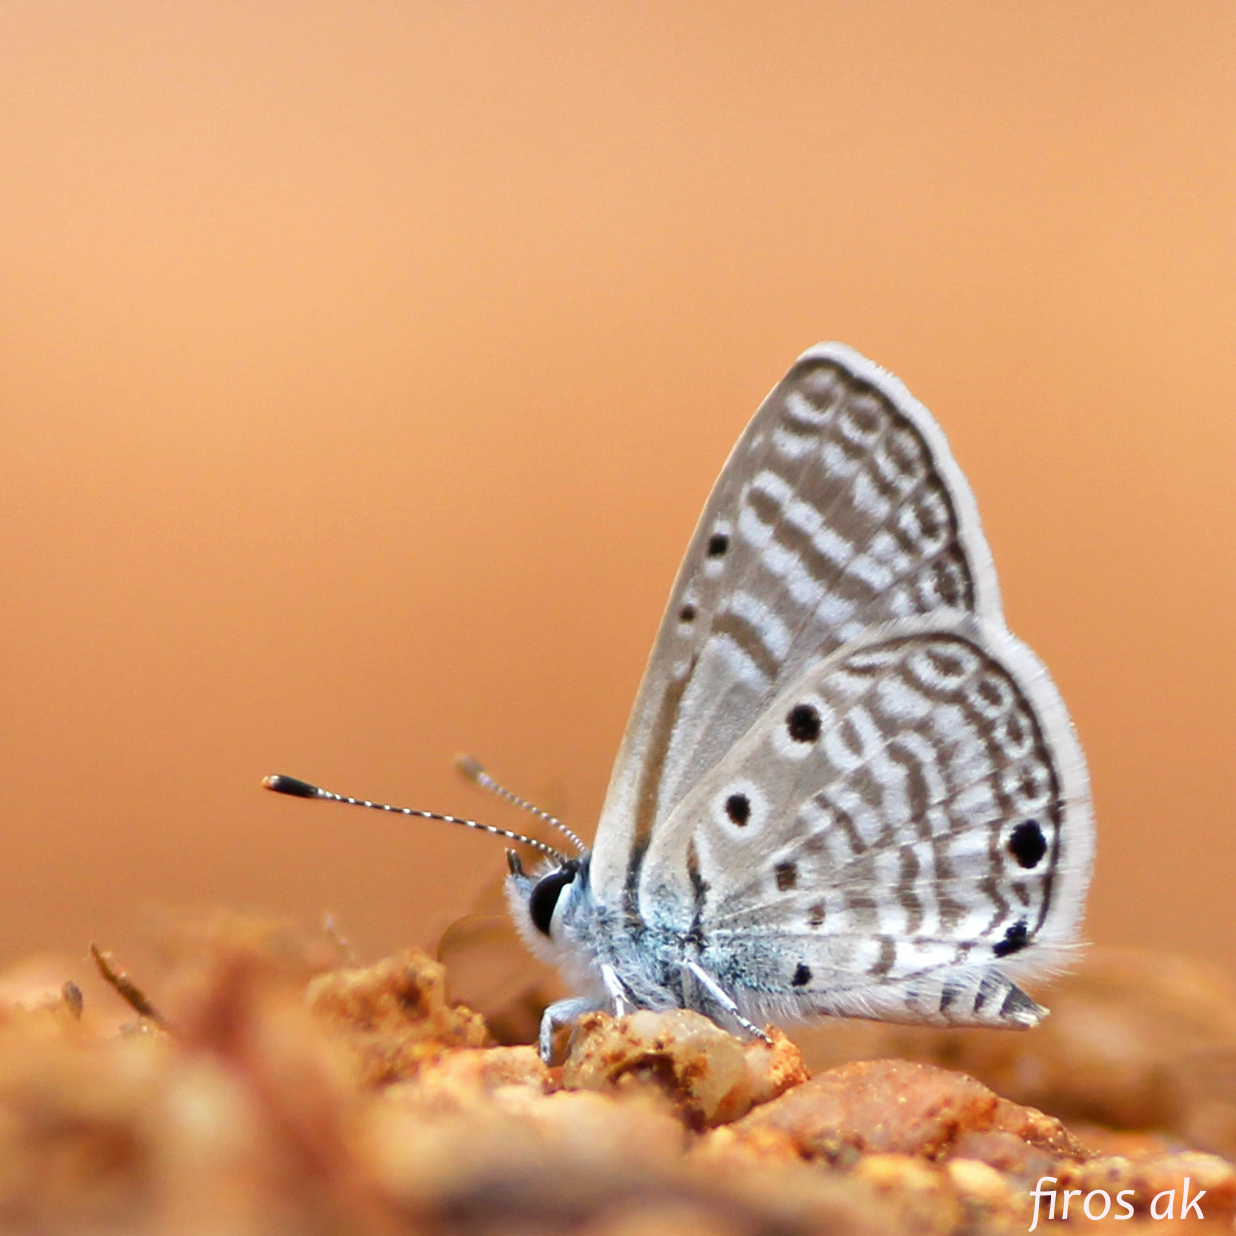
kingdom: Animalia
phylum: Arthropoda
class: Insecta
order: Lepidoptera
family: Lycaenidae
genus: Azanus
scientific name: Azanus ubaldus
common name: Desert babul blue
